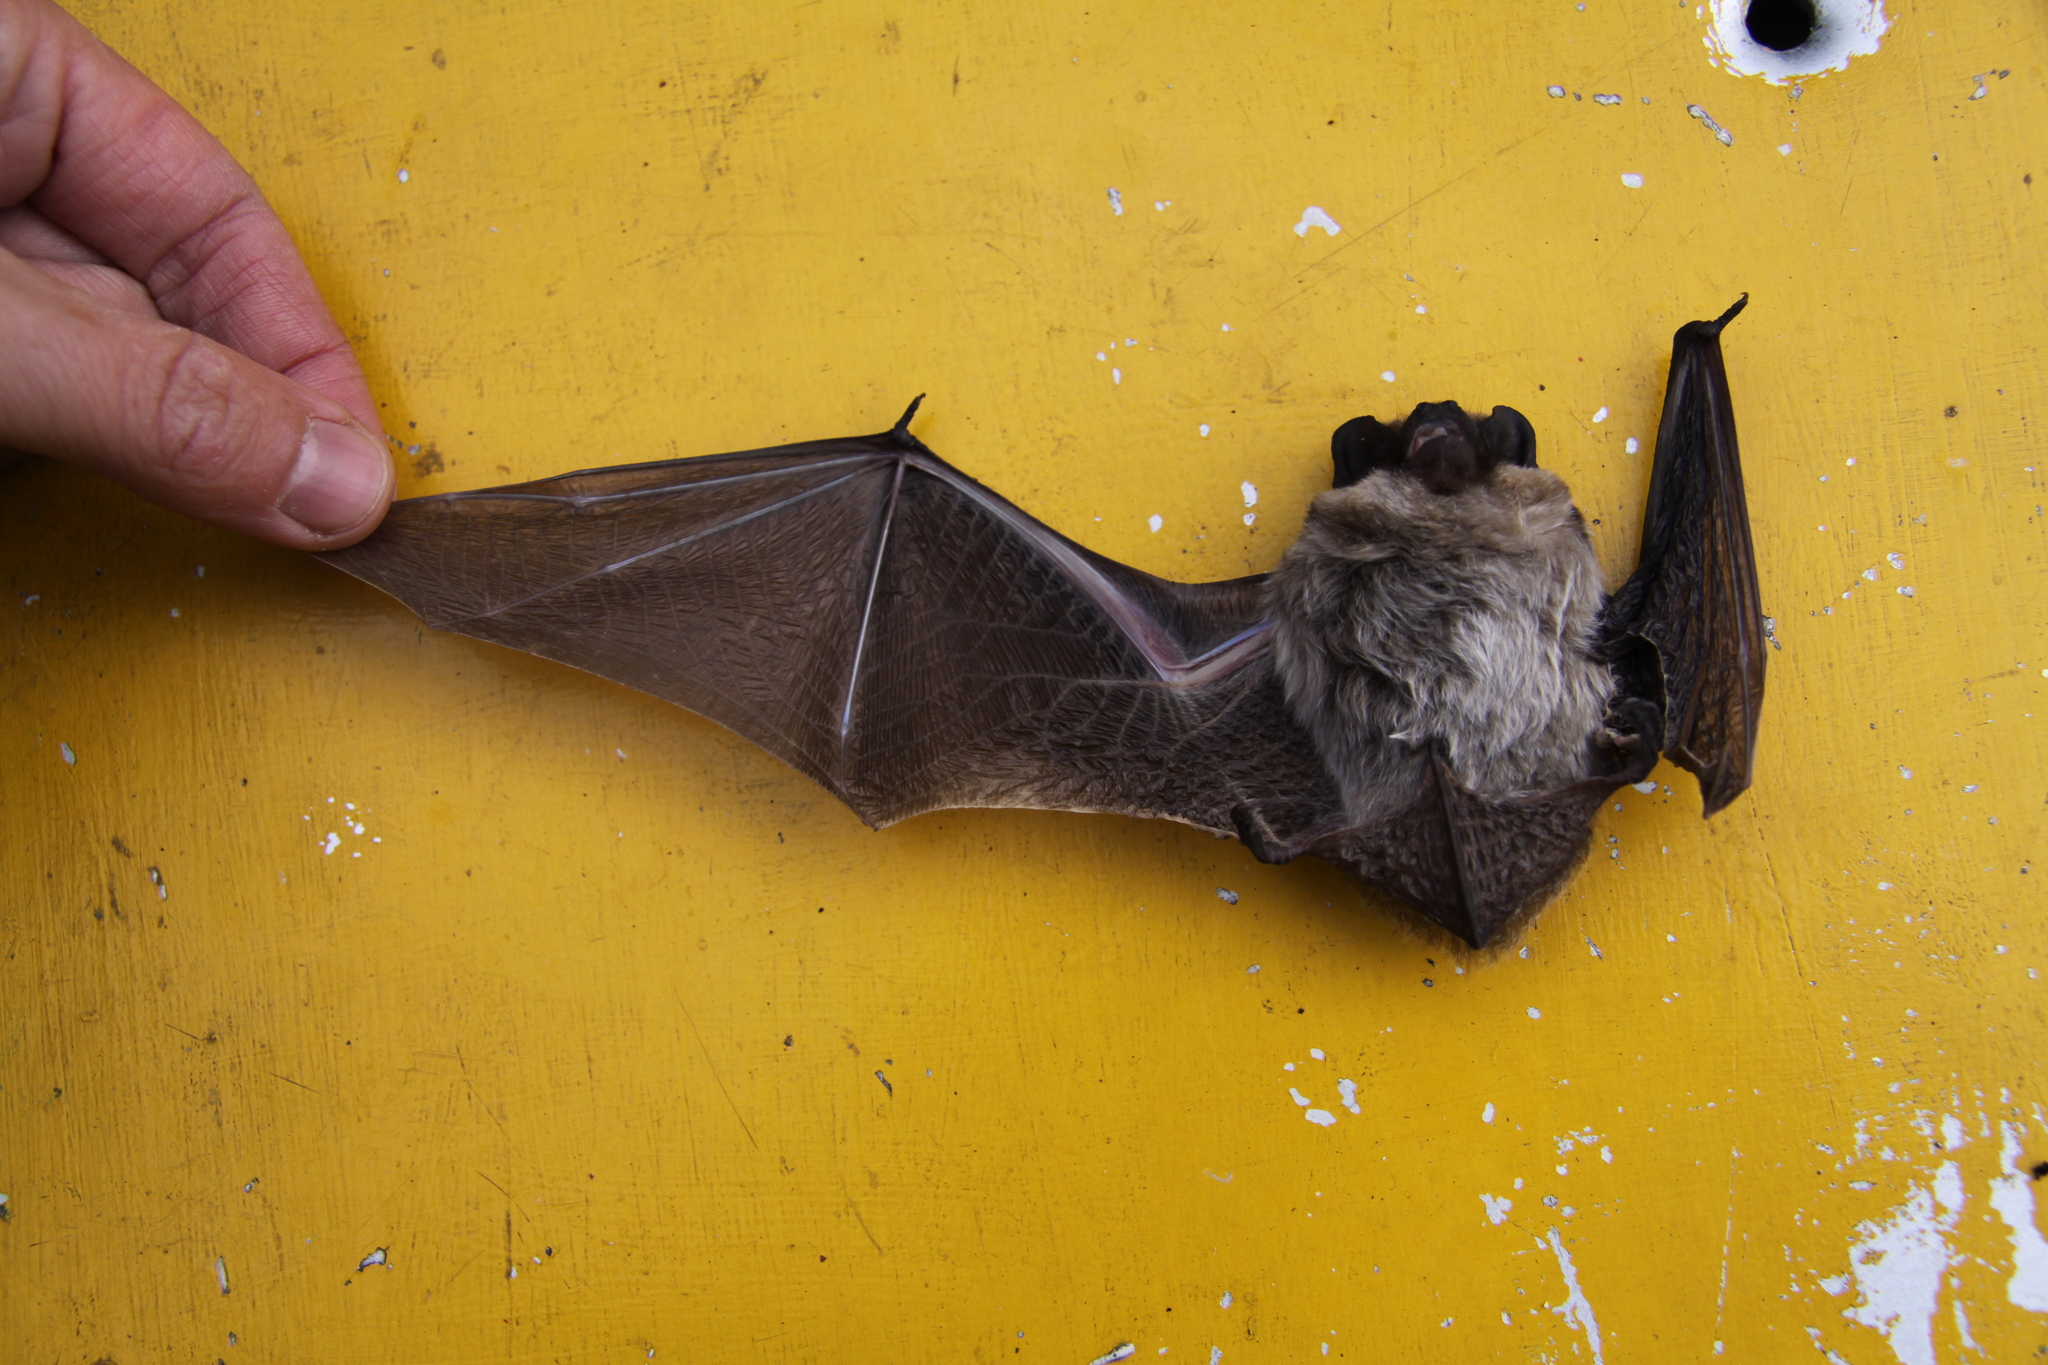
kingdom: Animalia
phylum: Chordata
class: Mammalia
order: Chiroptera
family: Vespertilionidae
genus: Vespertilio
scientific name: Vespertilio murinus
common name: Particolored bat
